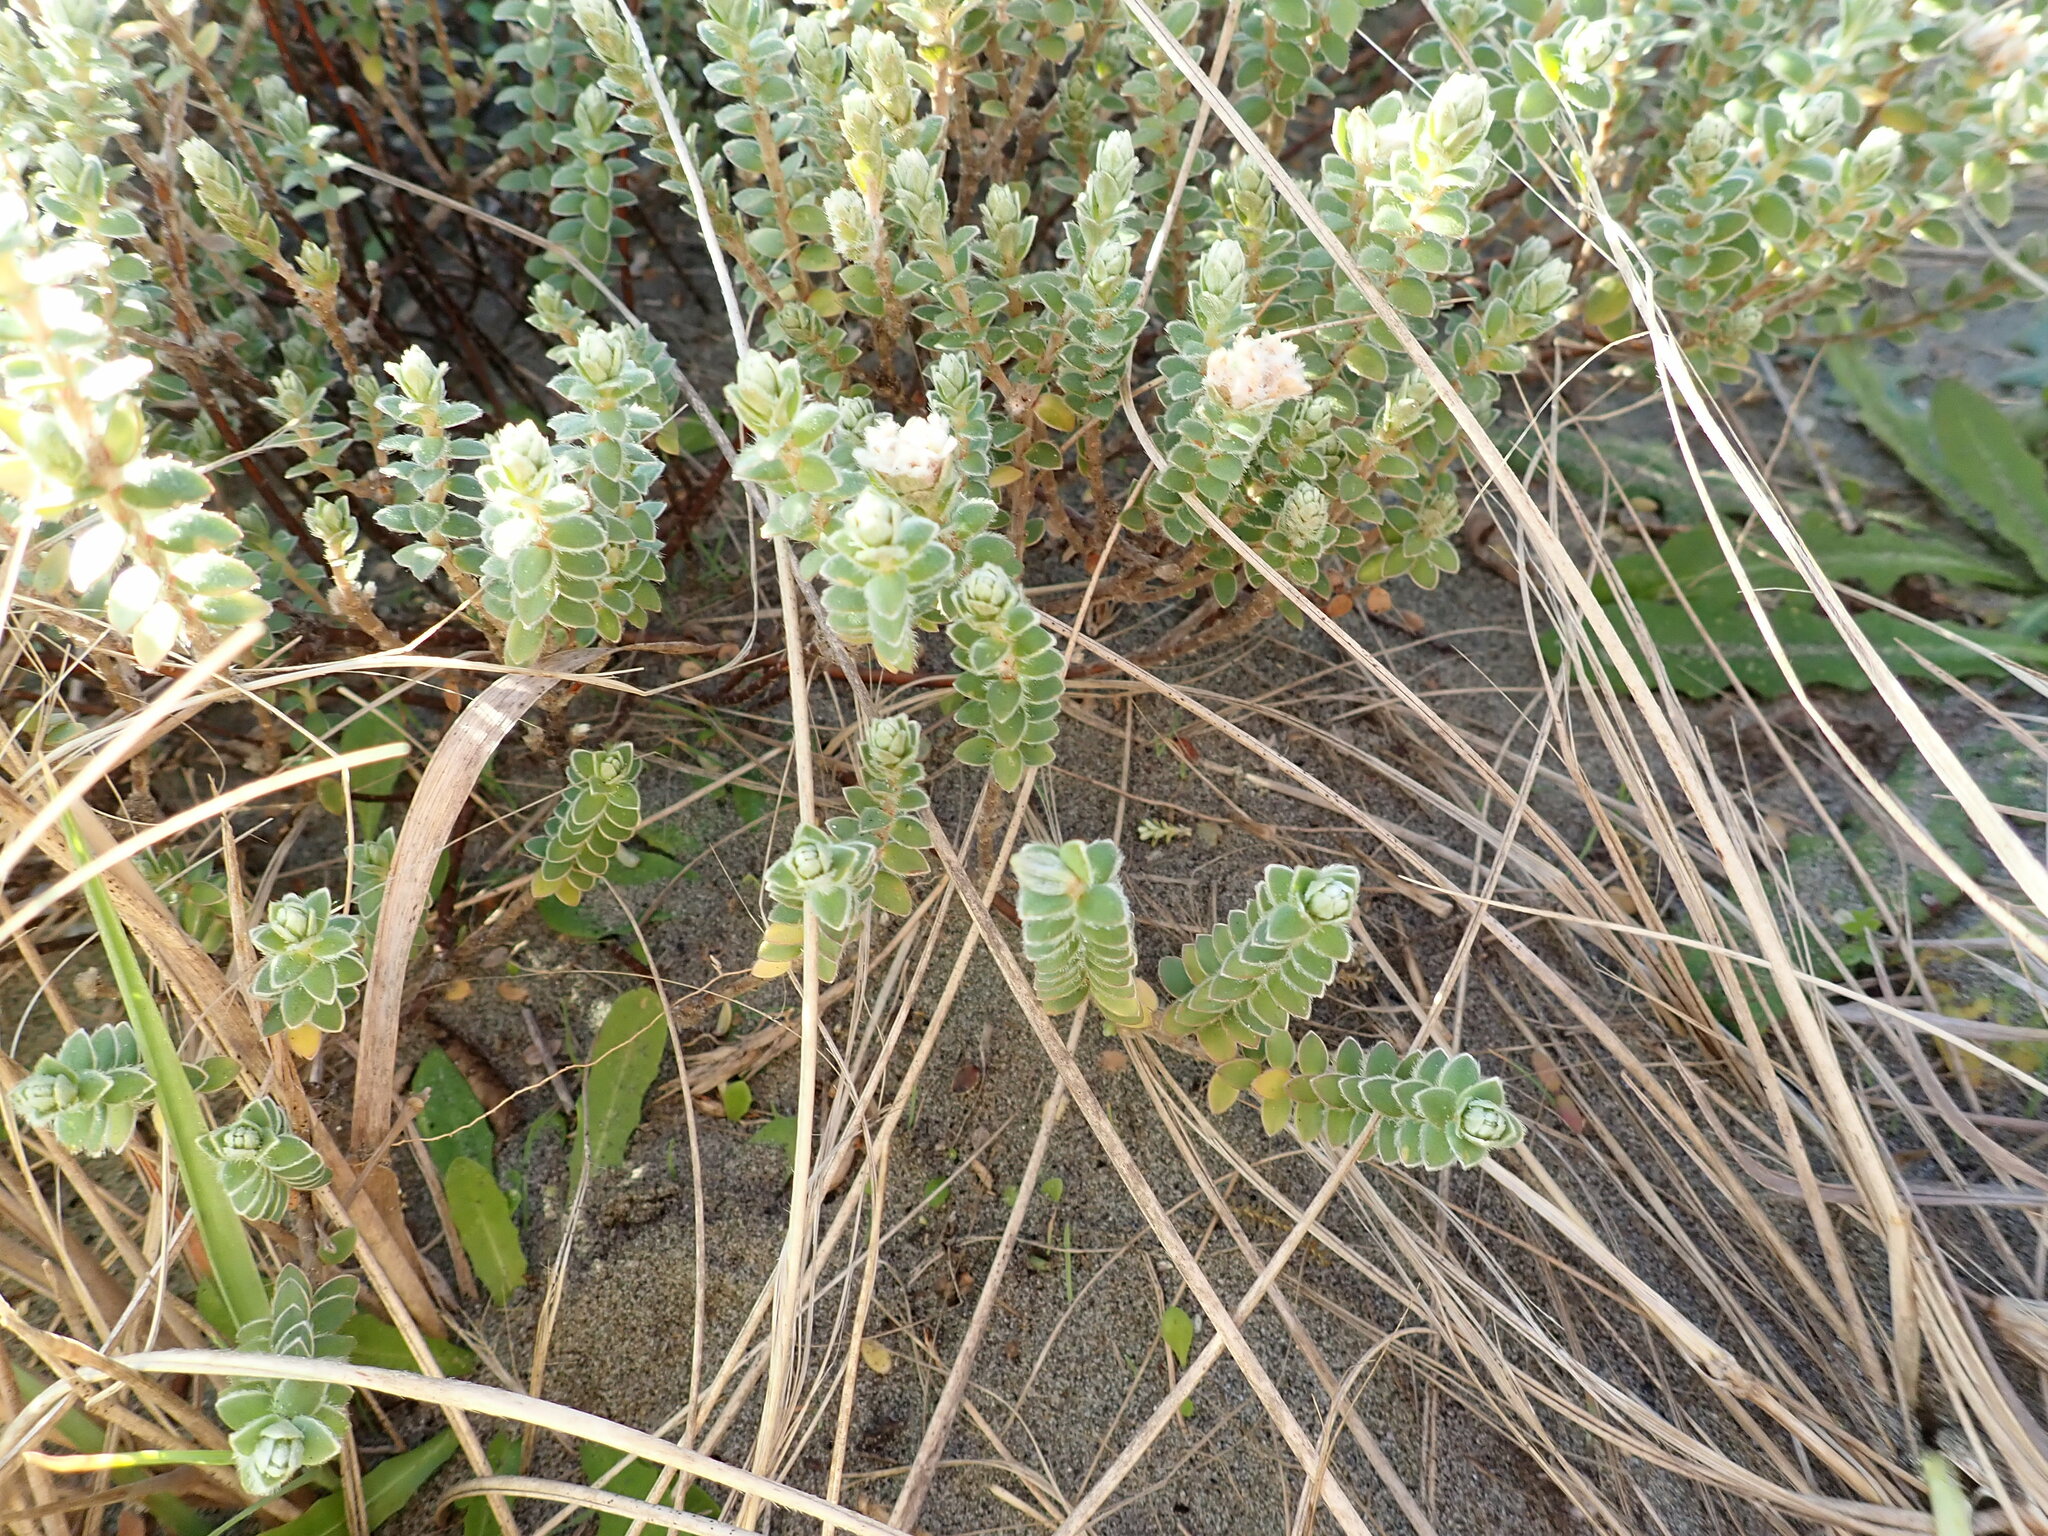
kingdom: Plantae
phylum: Tracheophyta
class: Magnoliopsida
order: Malvales
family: Thymelaeaceae
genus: Pimelea
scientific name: Pimelea villosa
